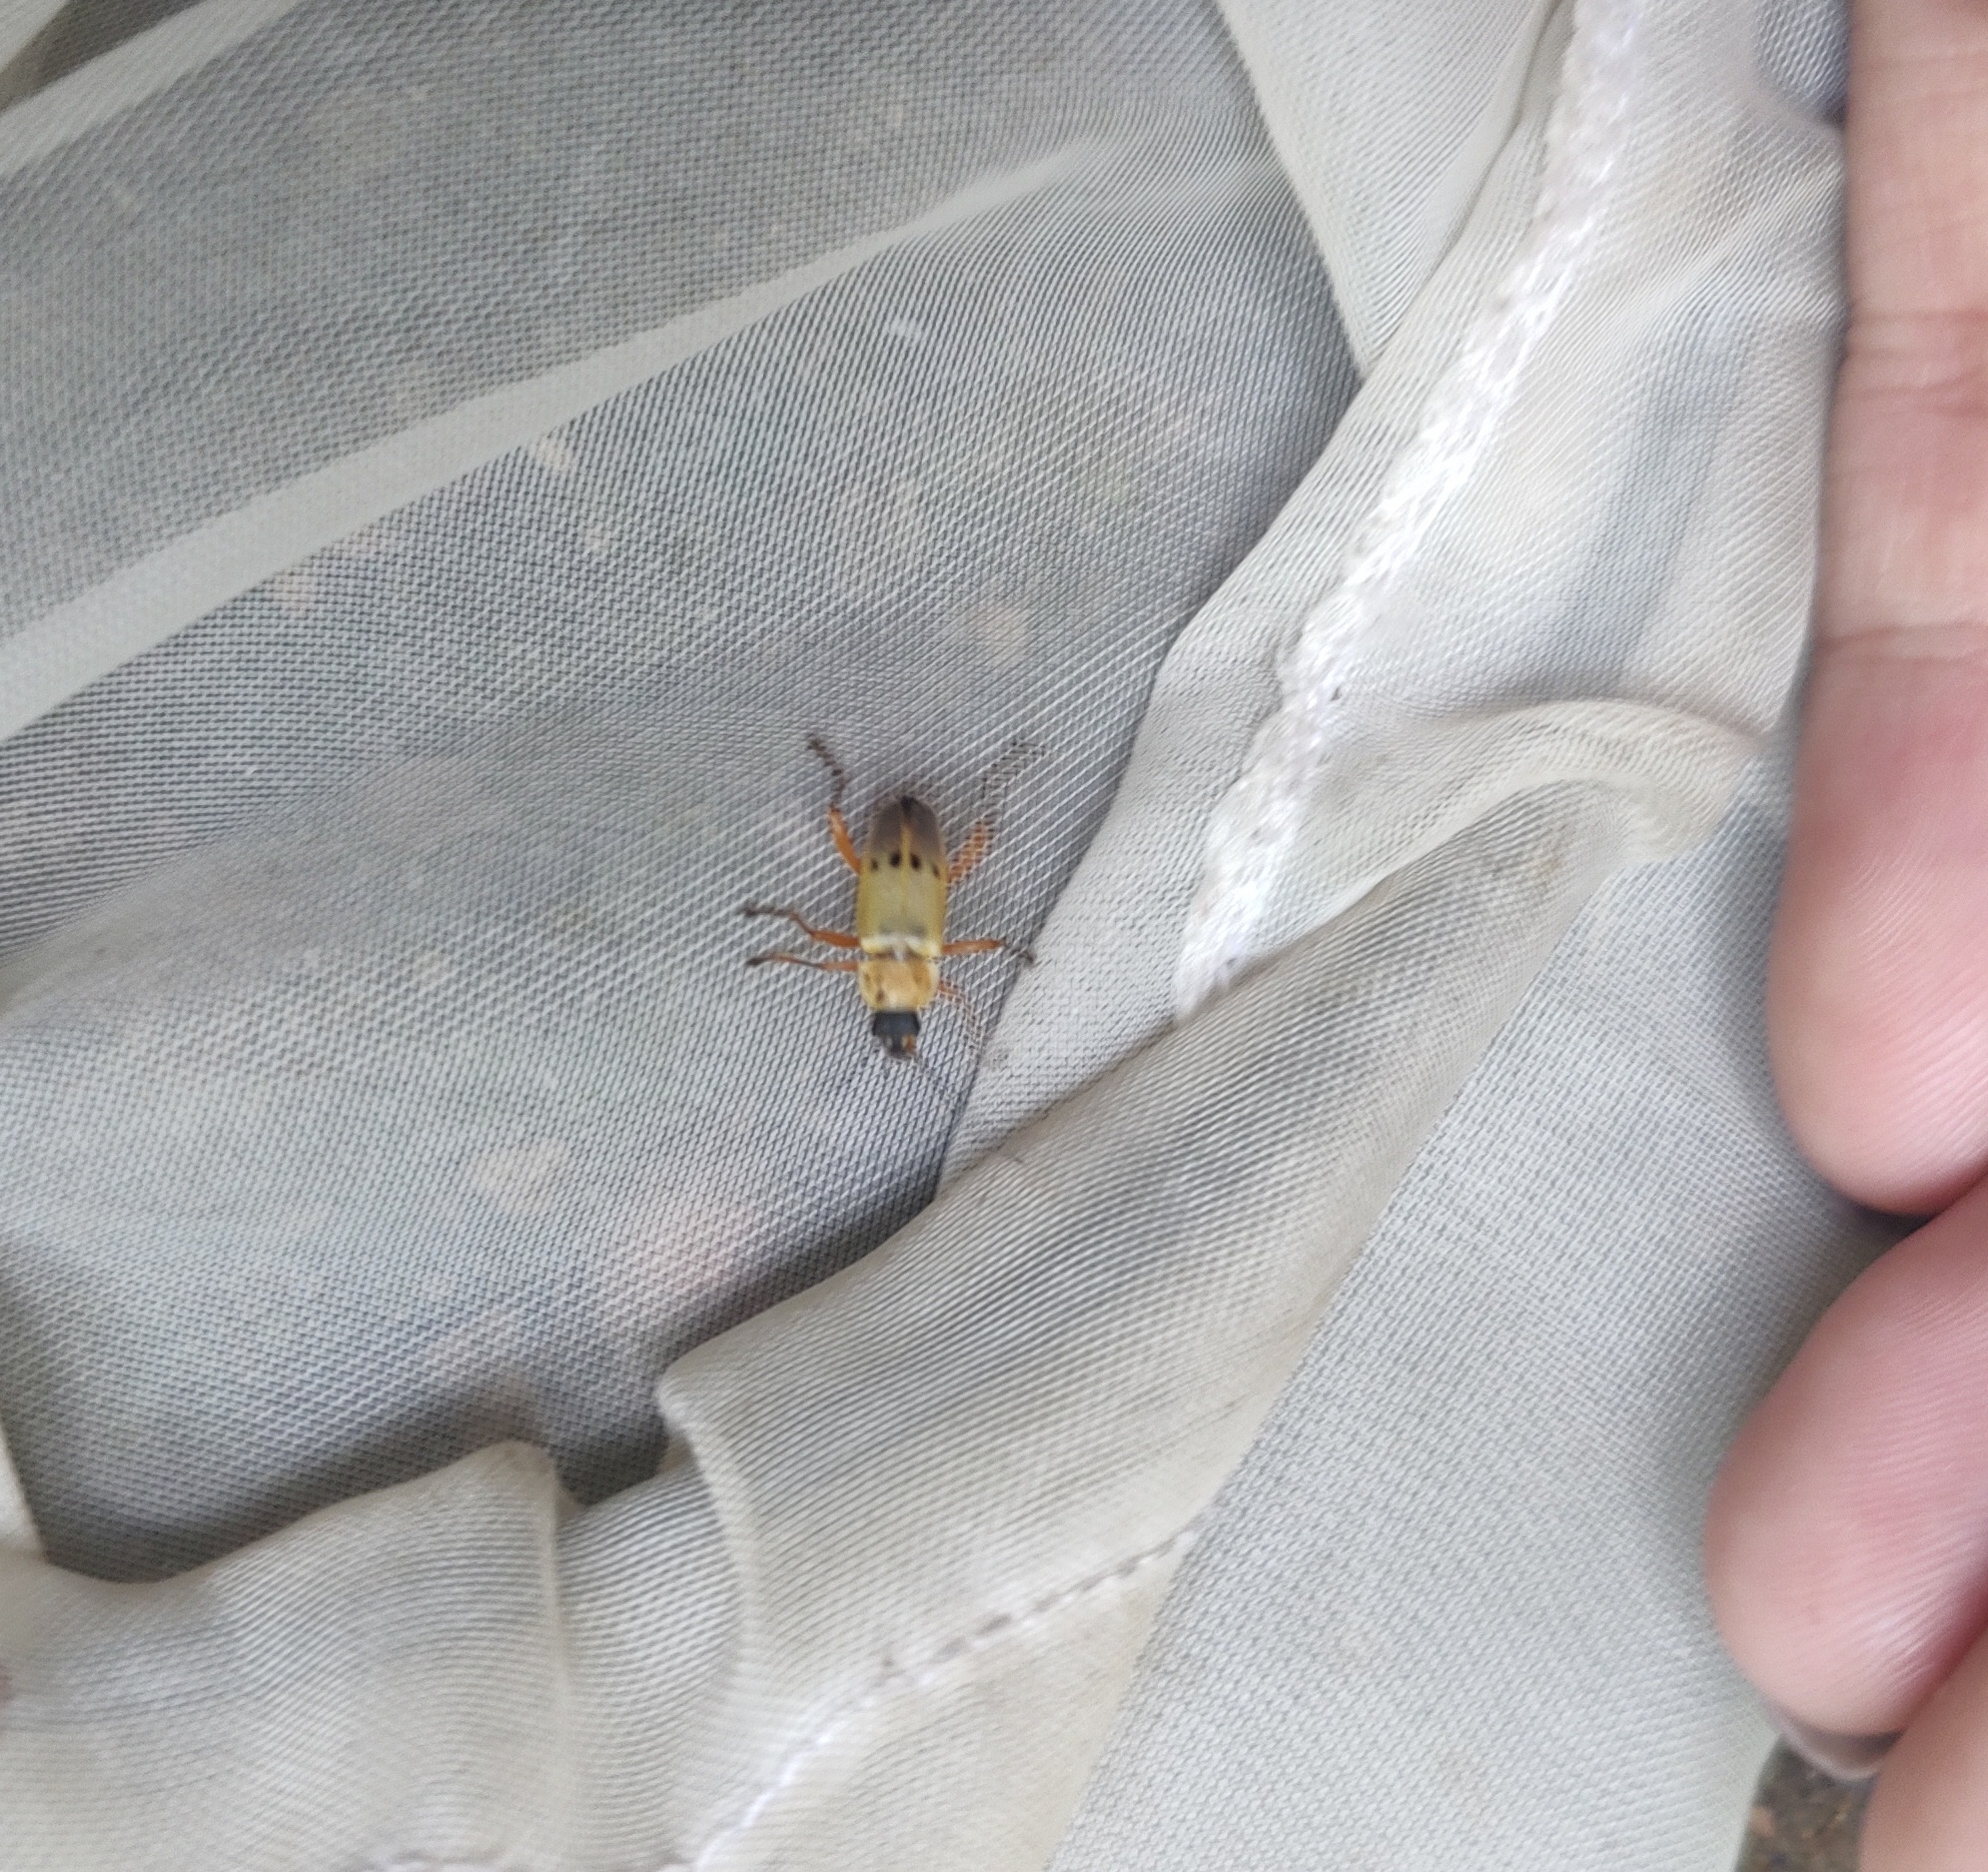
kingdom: Animalia
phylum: Arthropoda
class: Insecta
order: Coleoptera
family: Cantharidae
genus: Chauliognathus
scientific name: Chauliognathus
